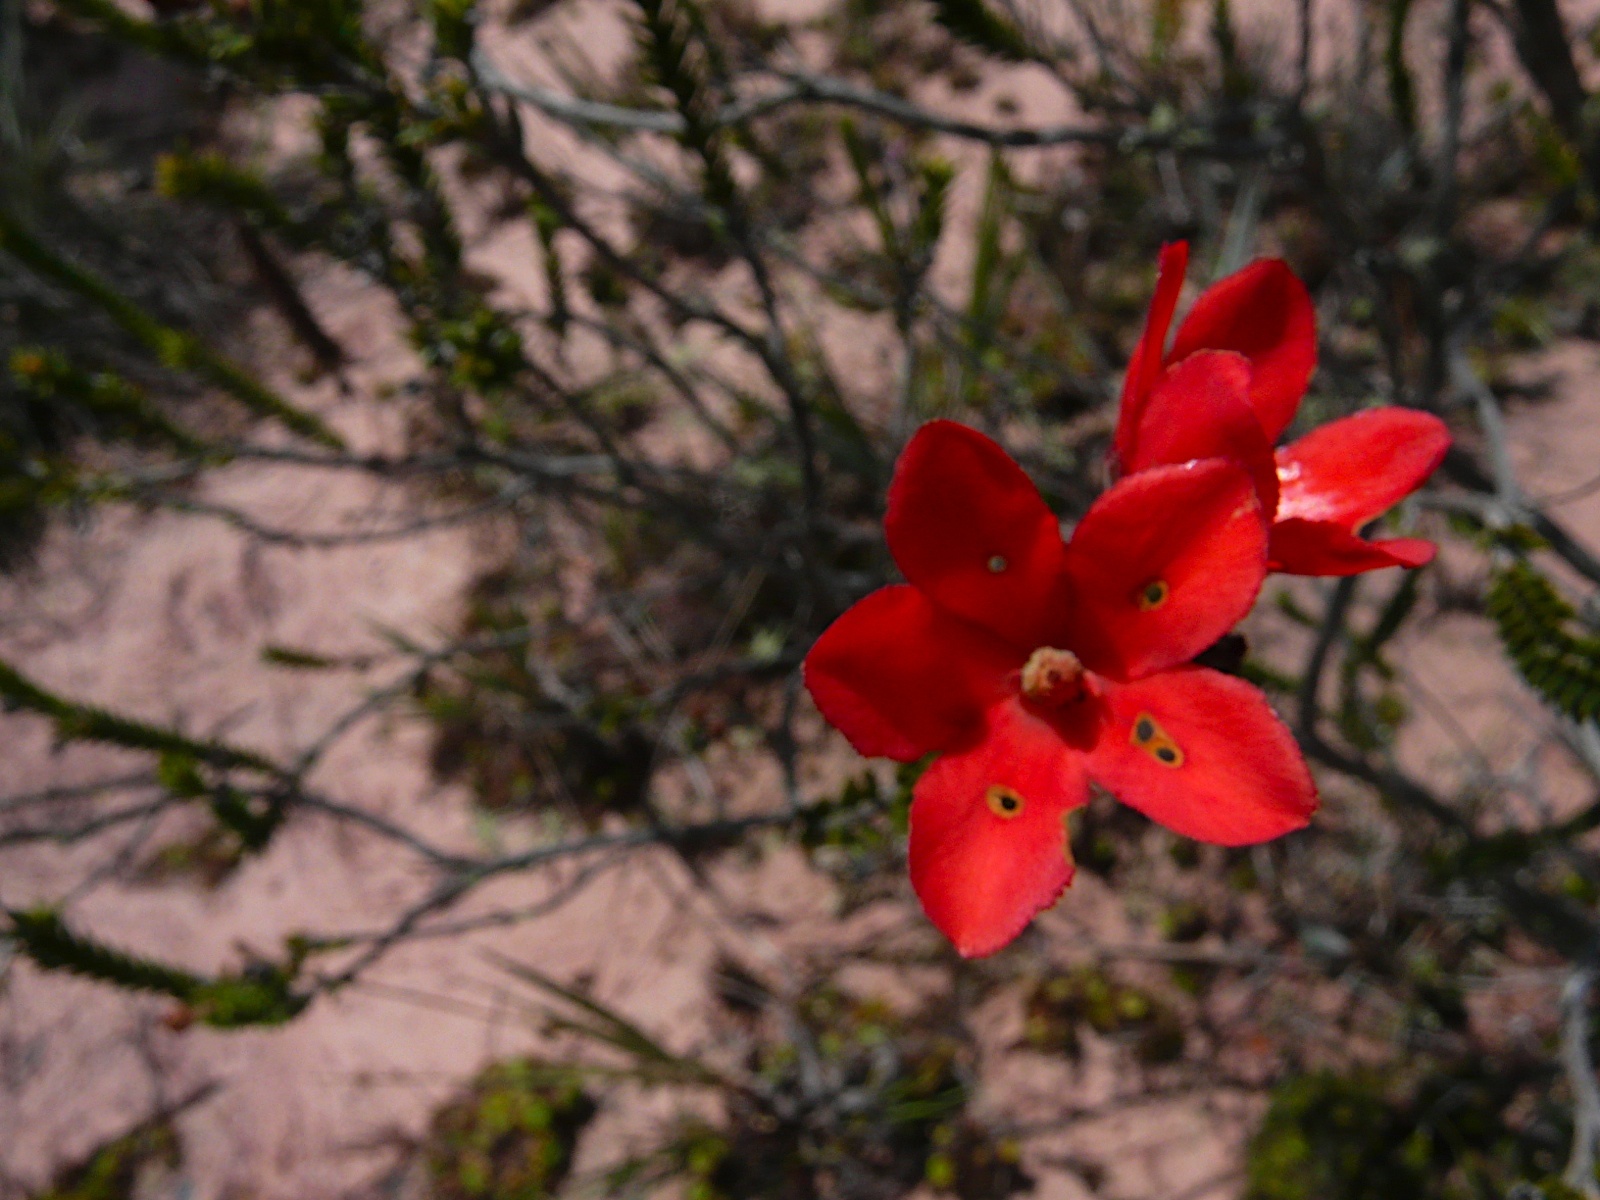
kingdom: Plantae
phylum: Tracheophyta
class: Magnoliopsida
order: Ericales
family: Ericaceae
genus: Ledothamnus
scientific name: Ledothamnus guyanensis
